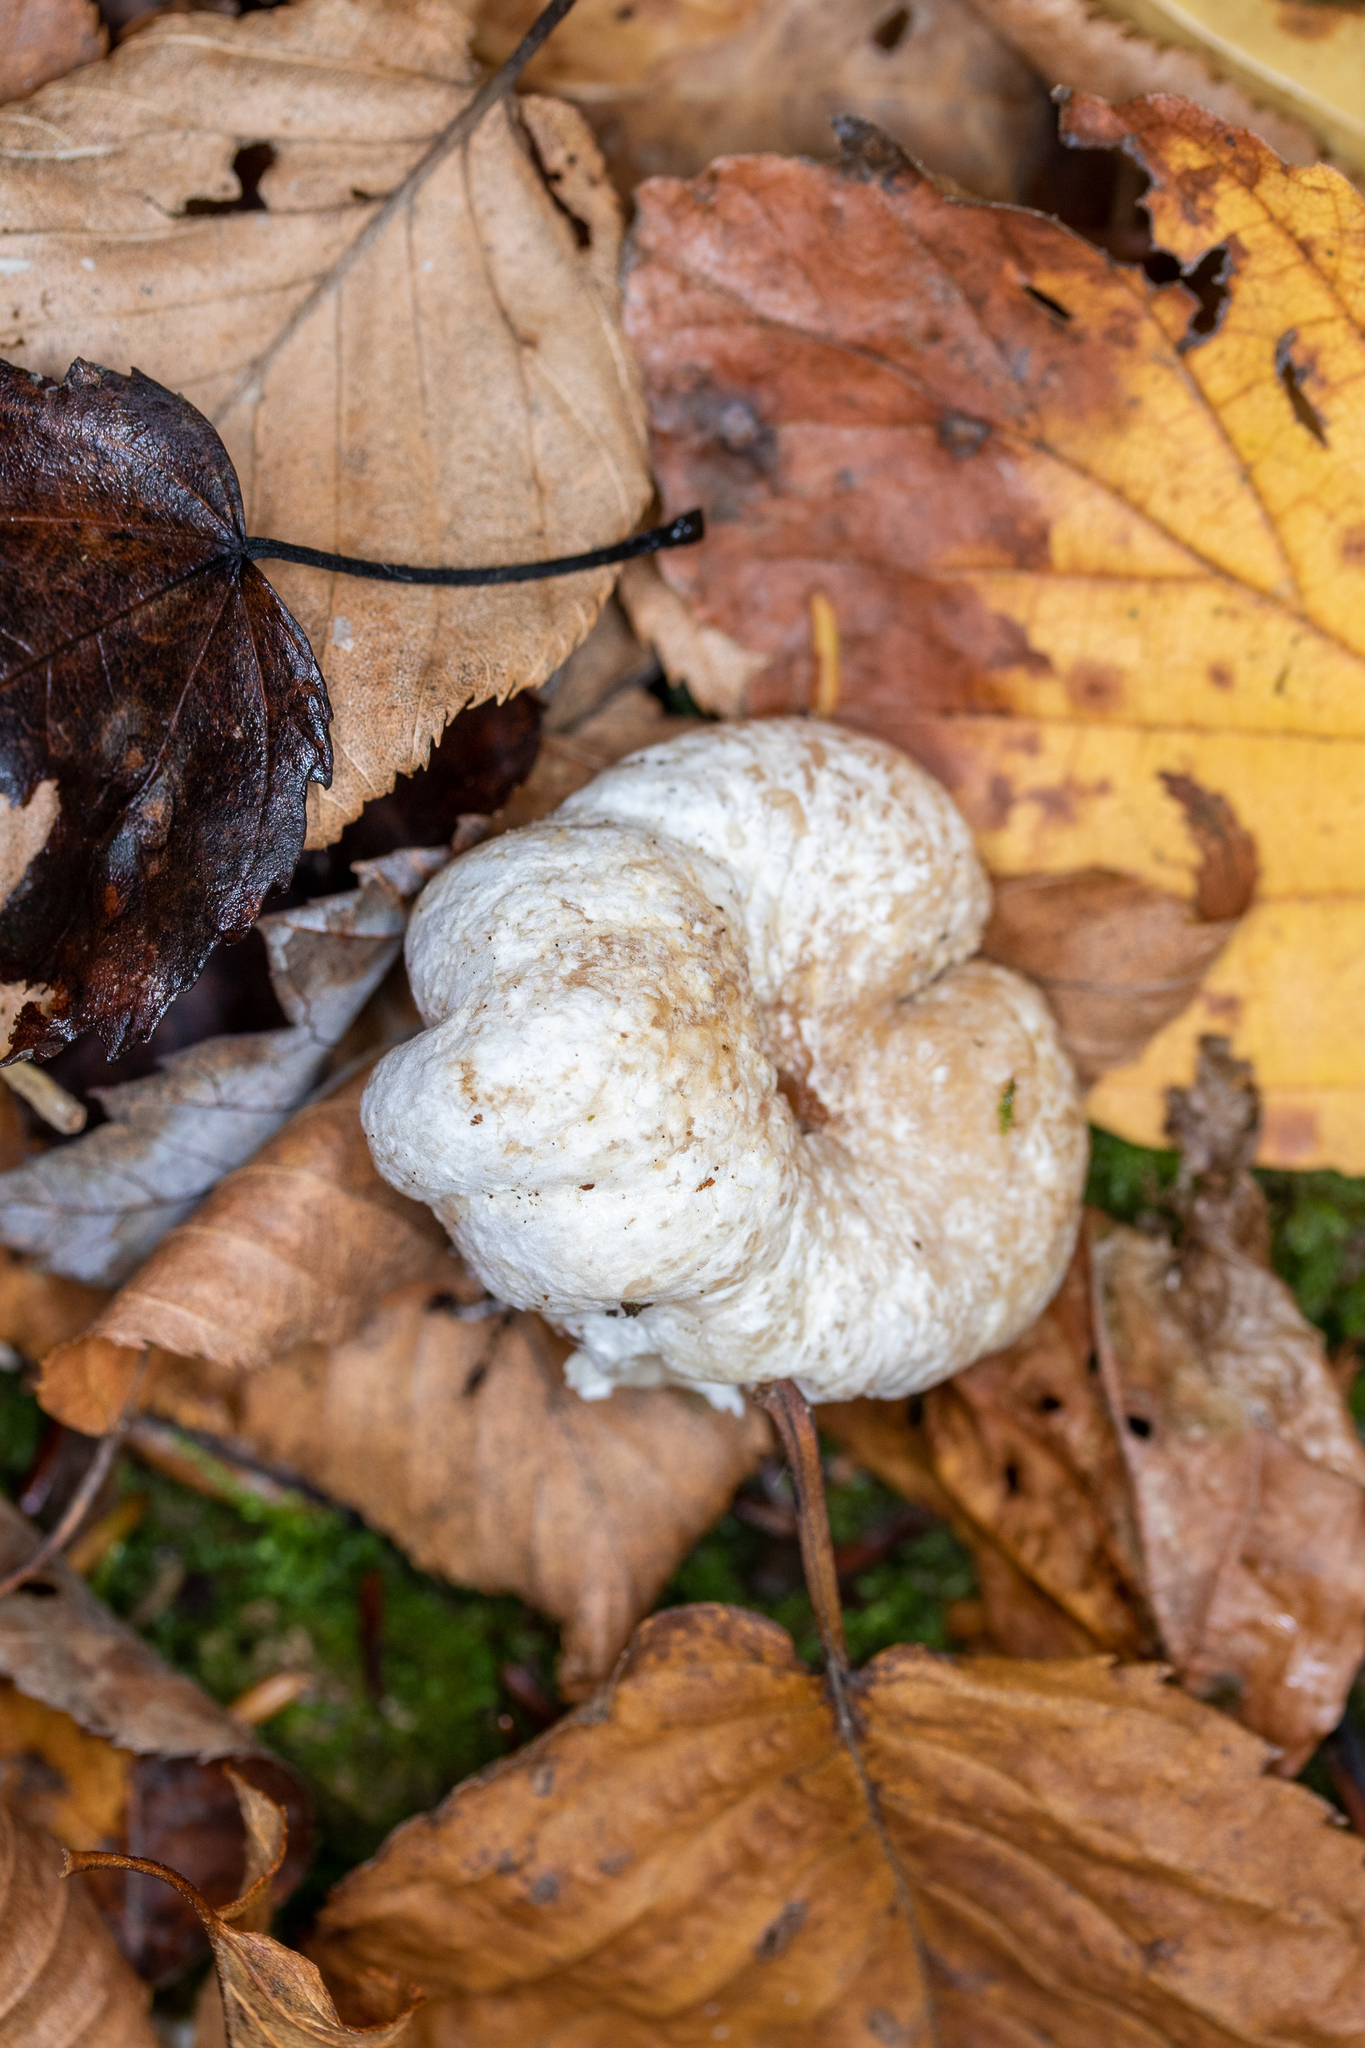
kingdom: Fungi
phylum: Basidiomycota
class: Agaricomycetes
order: Agaricales
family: Entolomataceae
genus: Entoloma
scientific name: Entoloma abortivum
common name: Aborted entoloma
